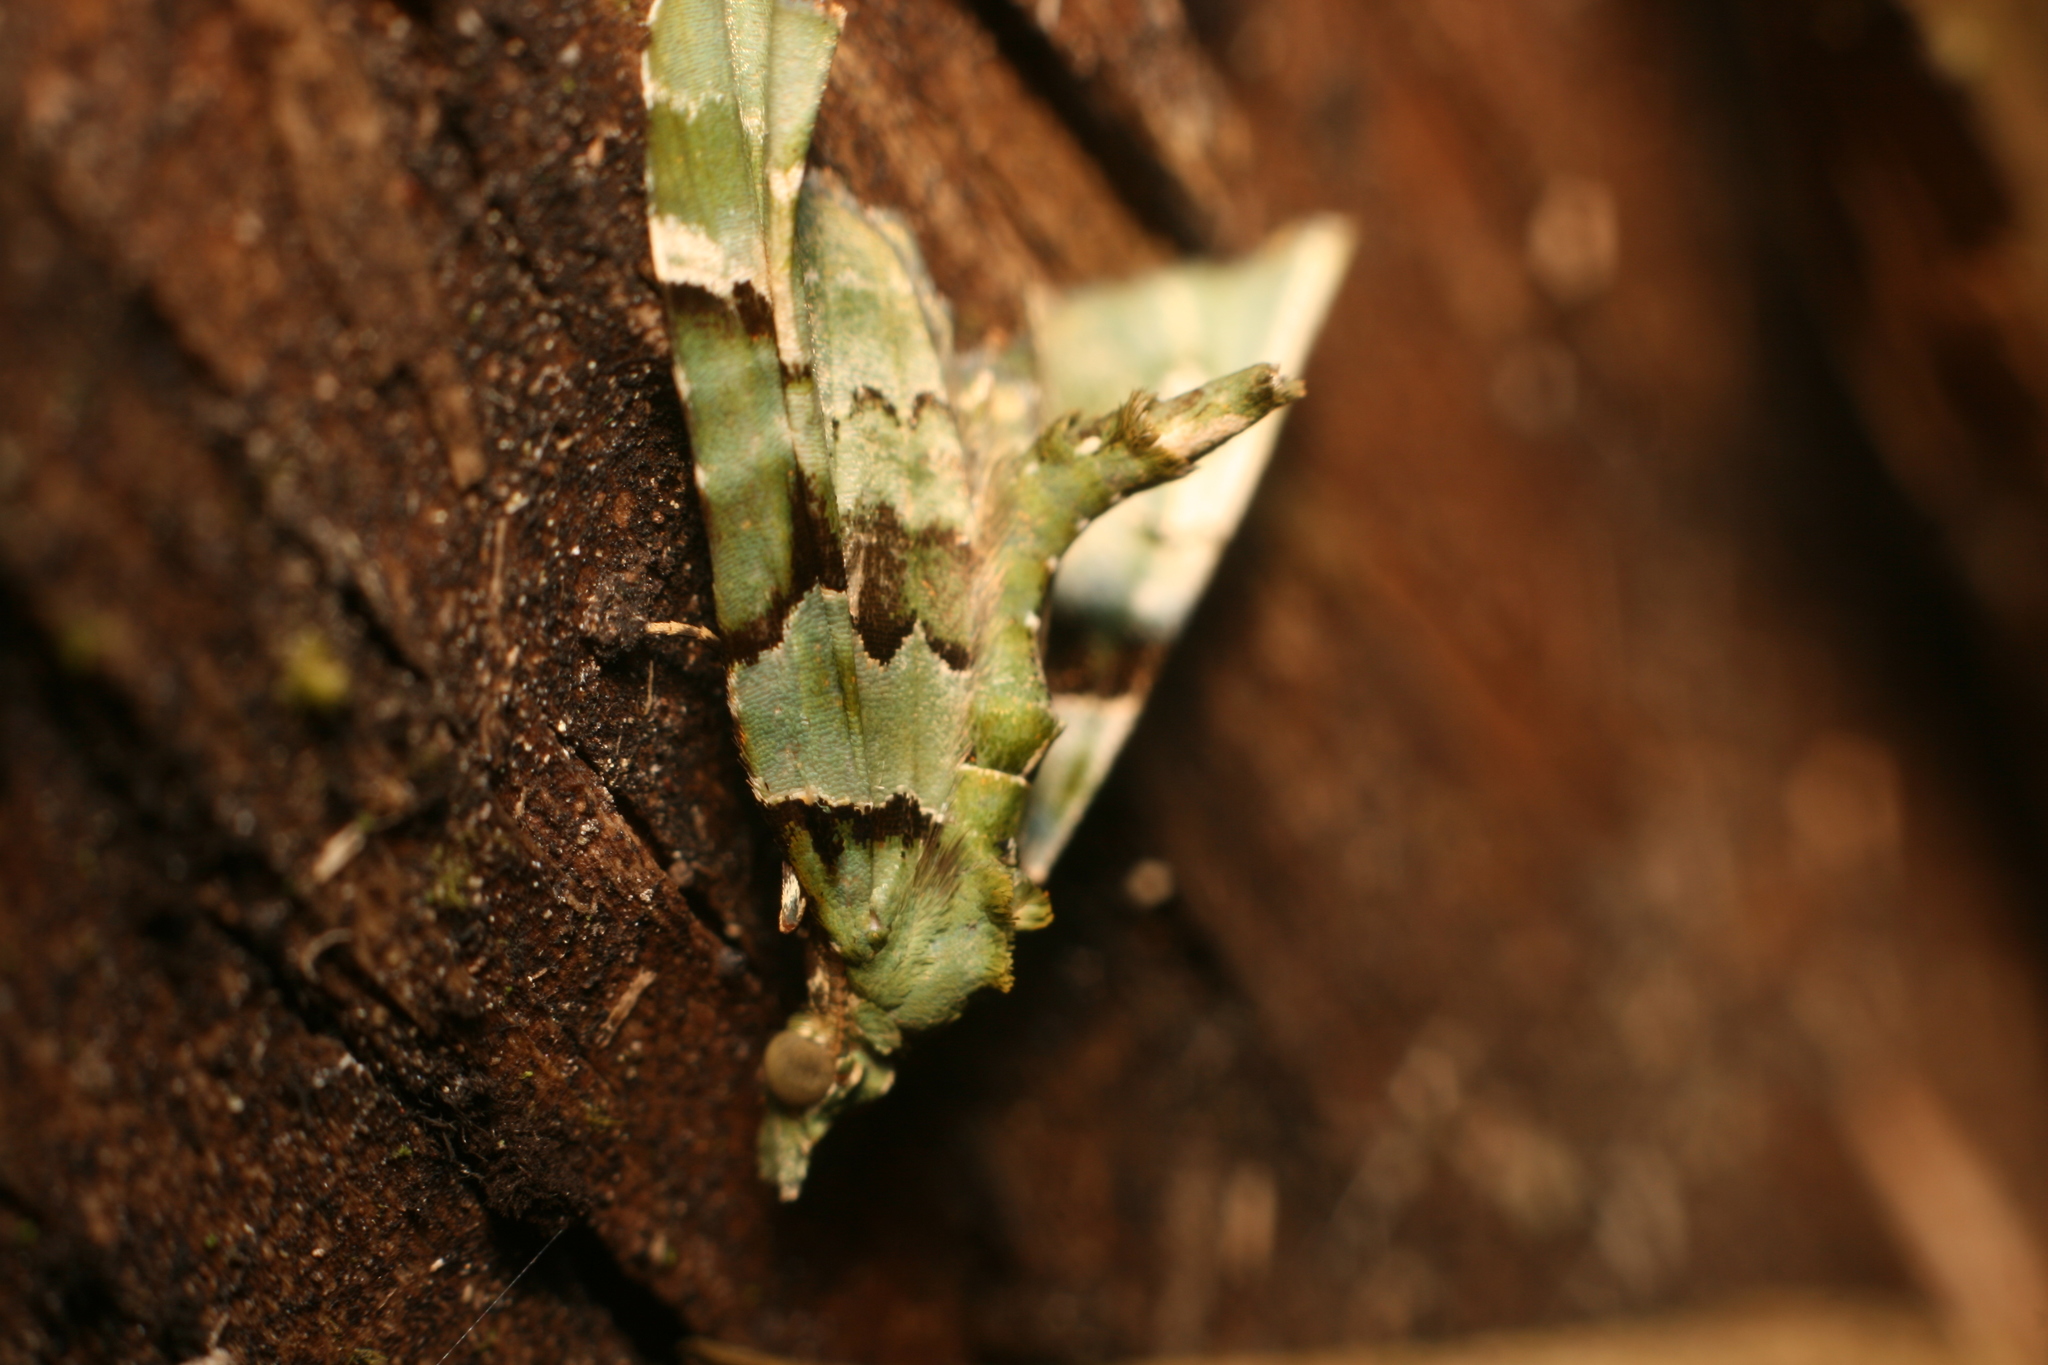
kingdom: Animalia
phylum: Arthropoda
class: Insecta
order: Lepidoptera
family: Geometridae
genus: Elvia
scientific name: Elvia glaucata
